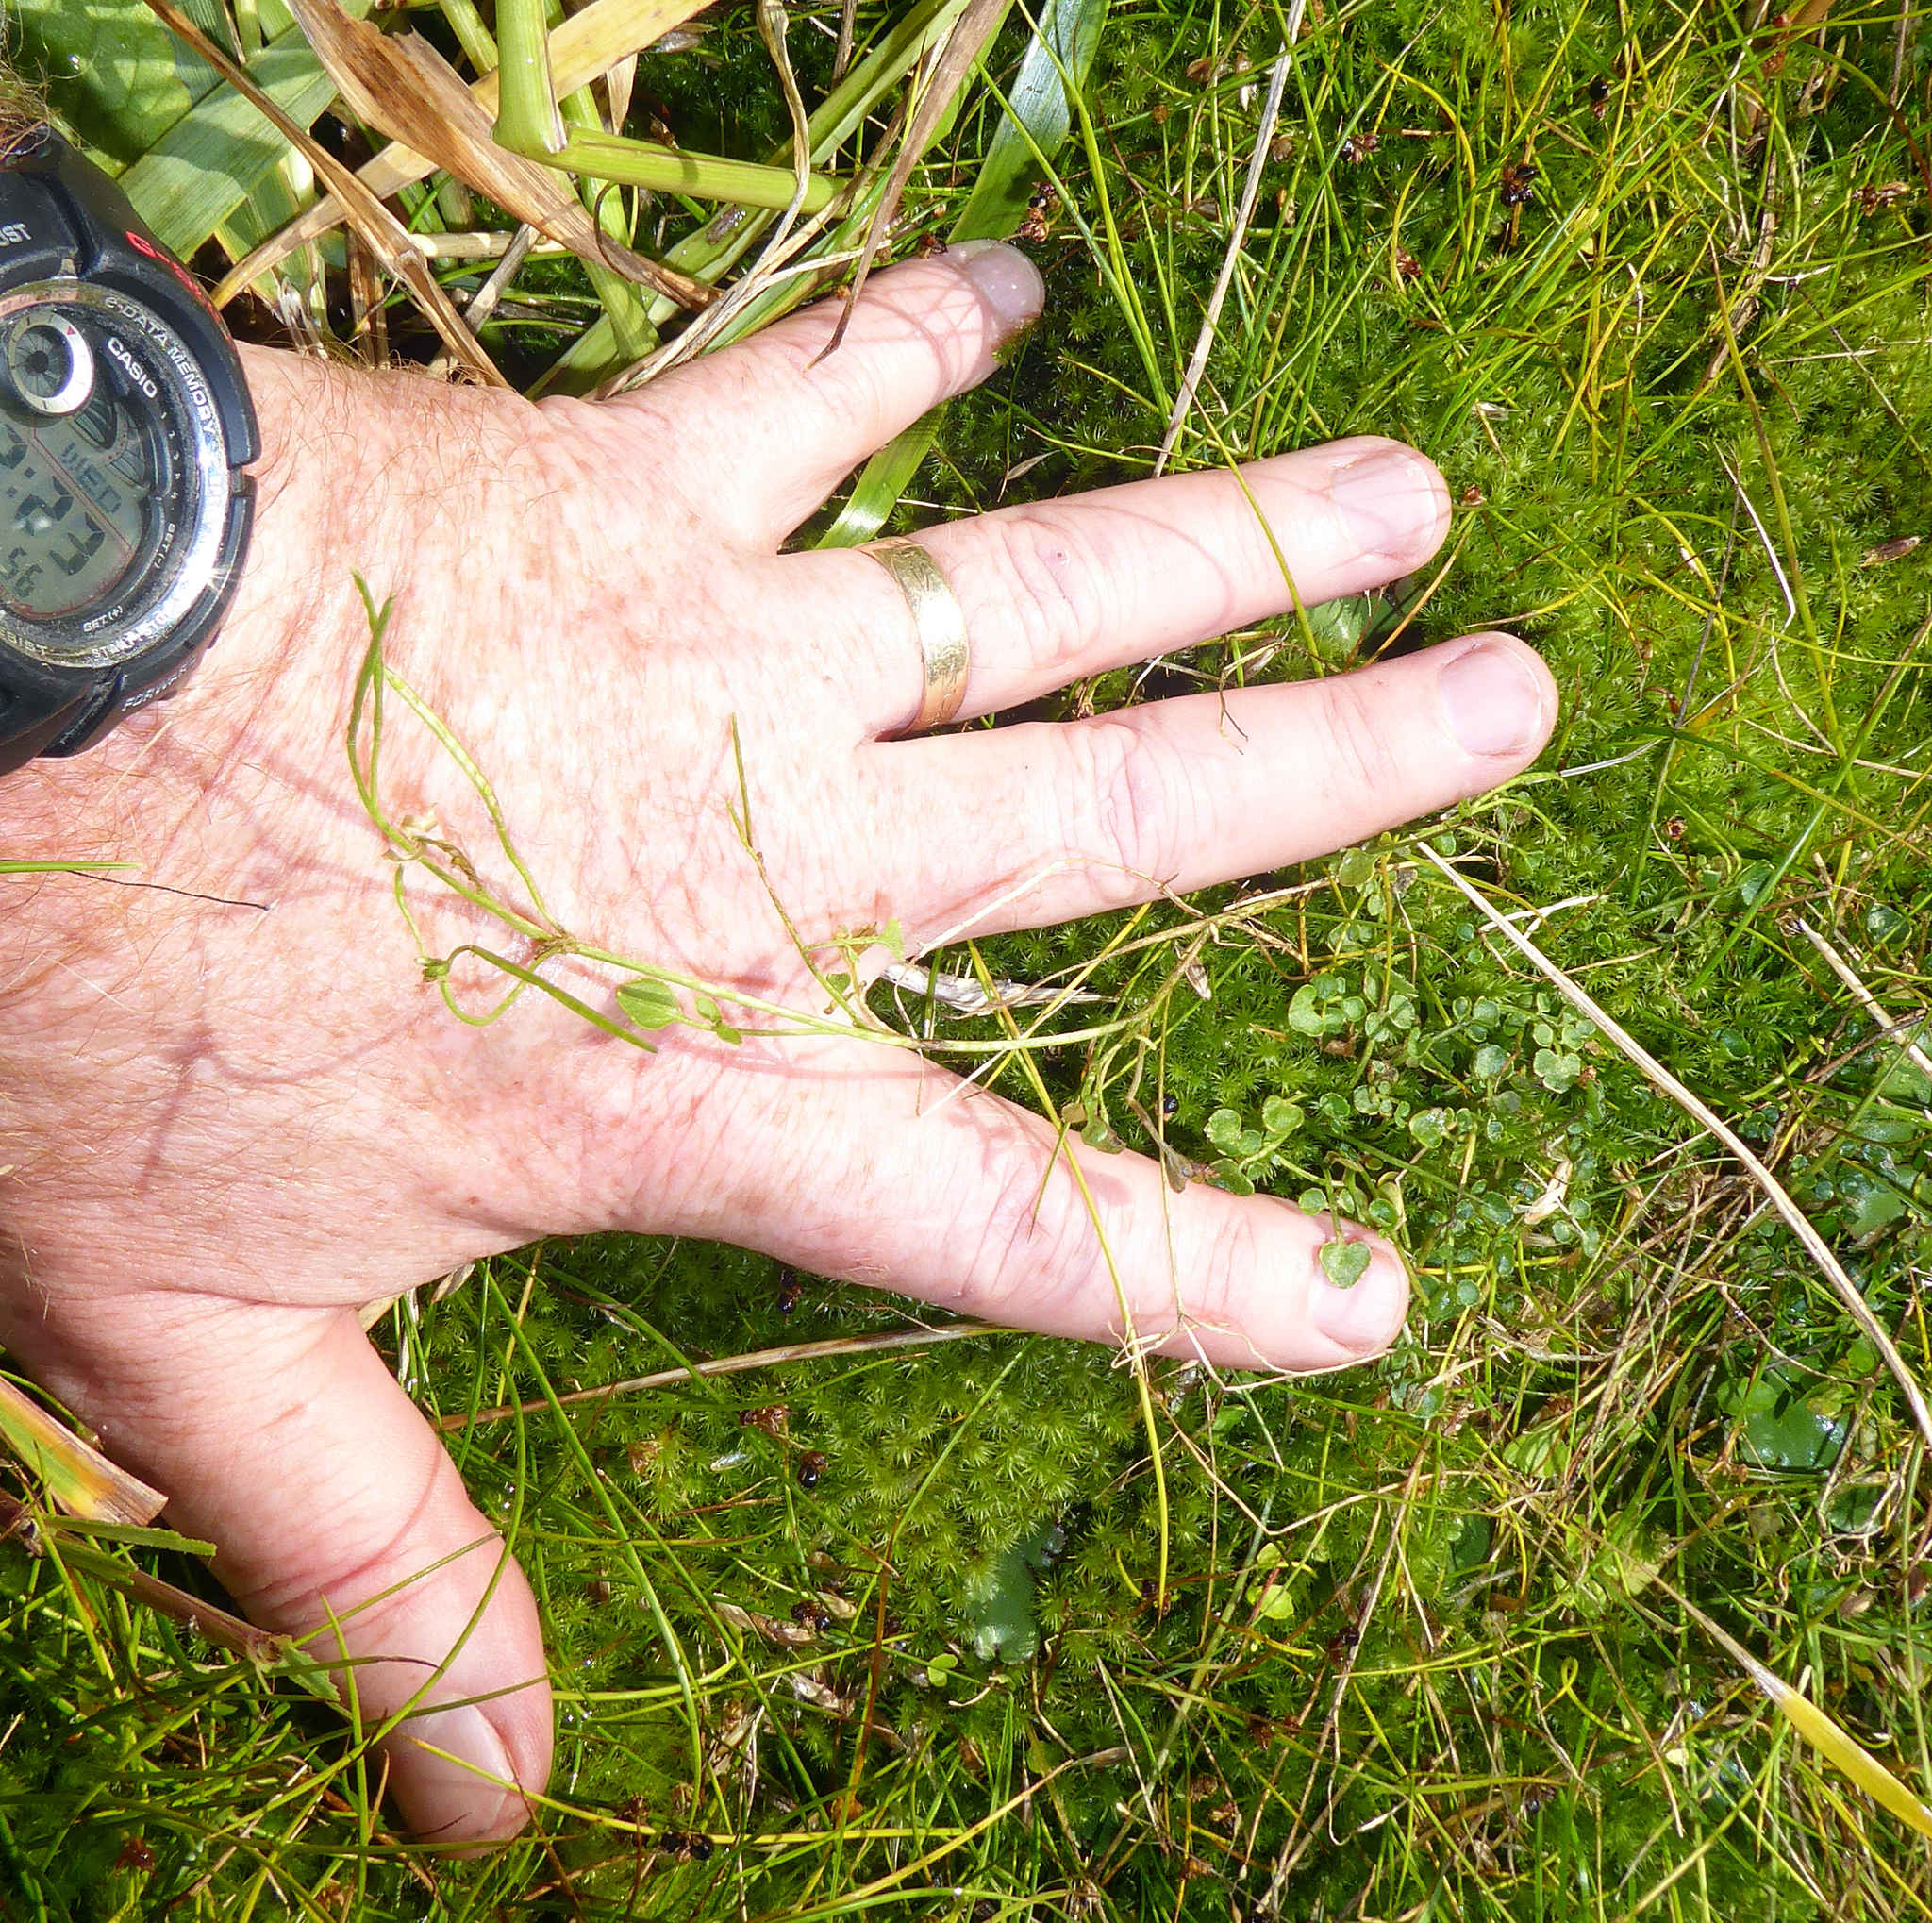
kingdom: Plantae
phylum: Tracheophyta
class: Magnoliopsida
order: Brassicales
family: Brassicaceae
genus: Cardamine
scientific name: Cardamine panatohea
